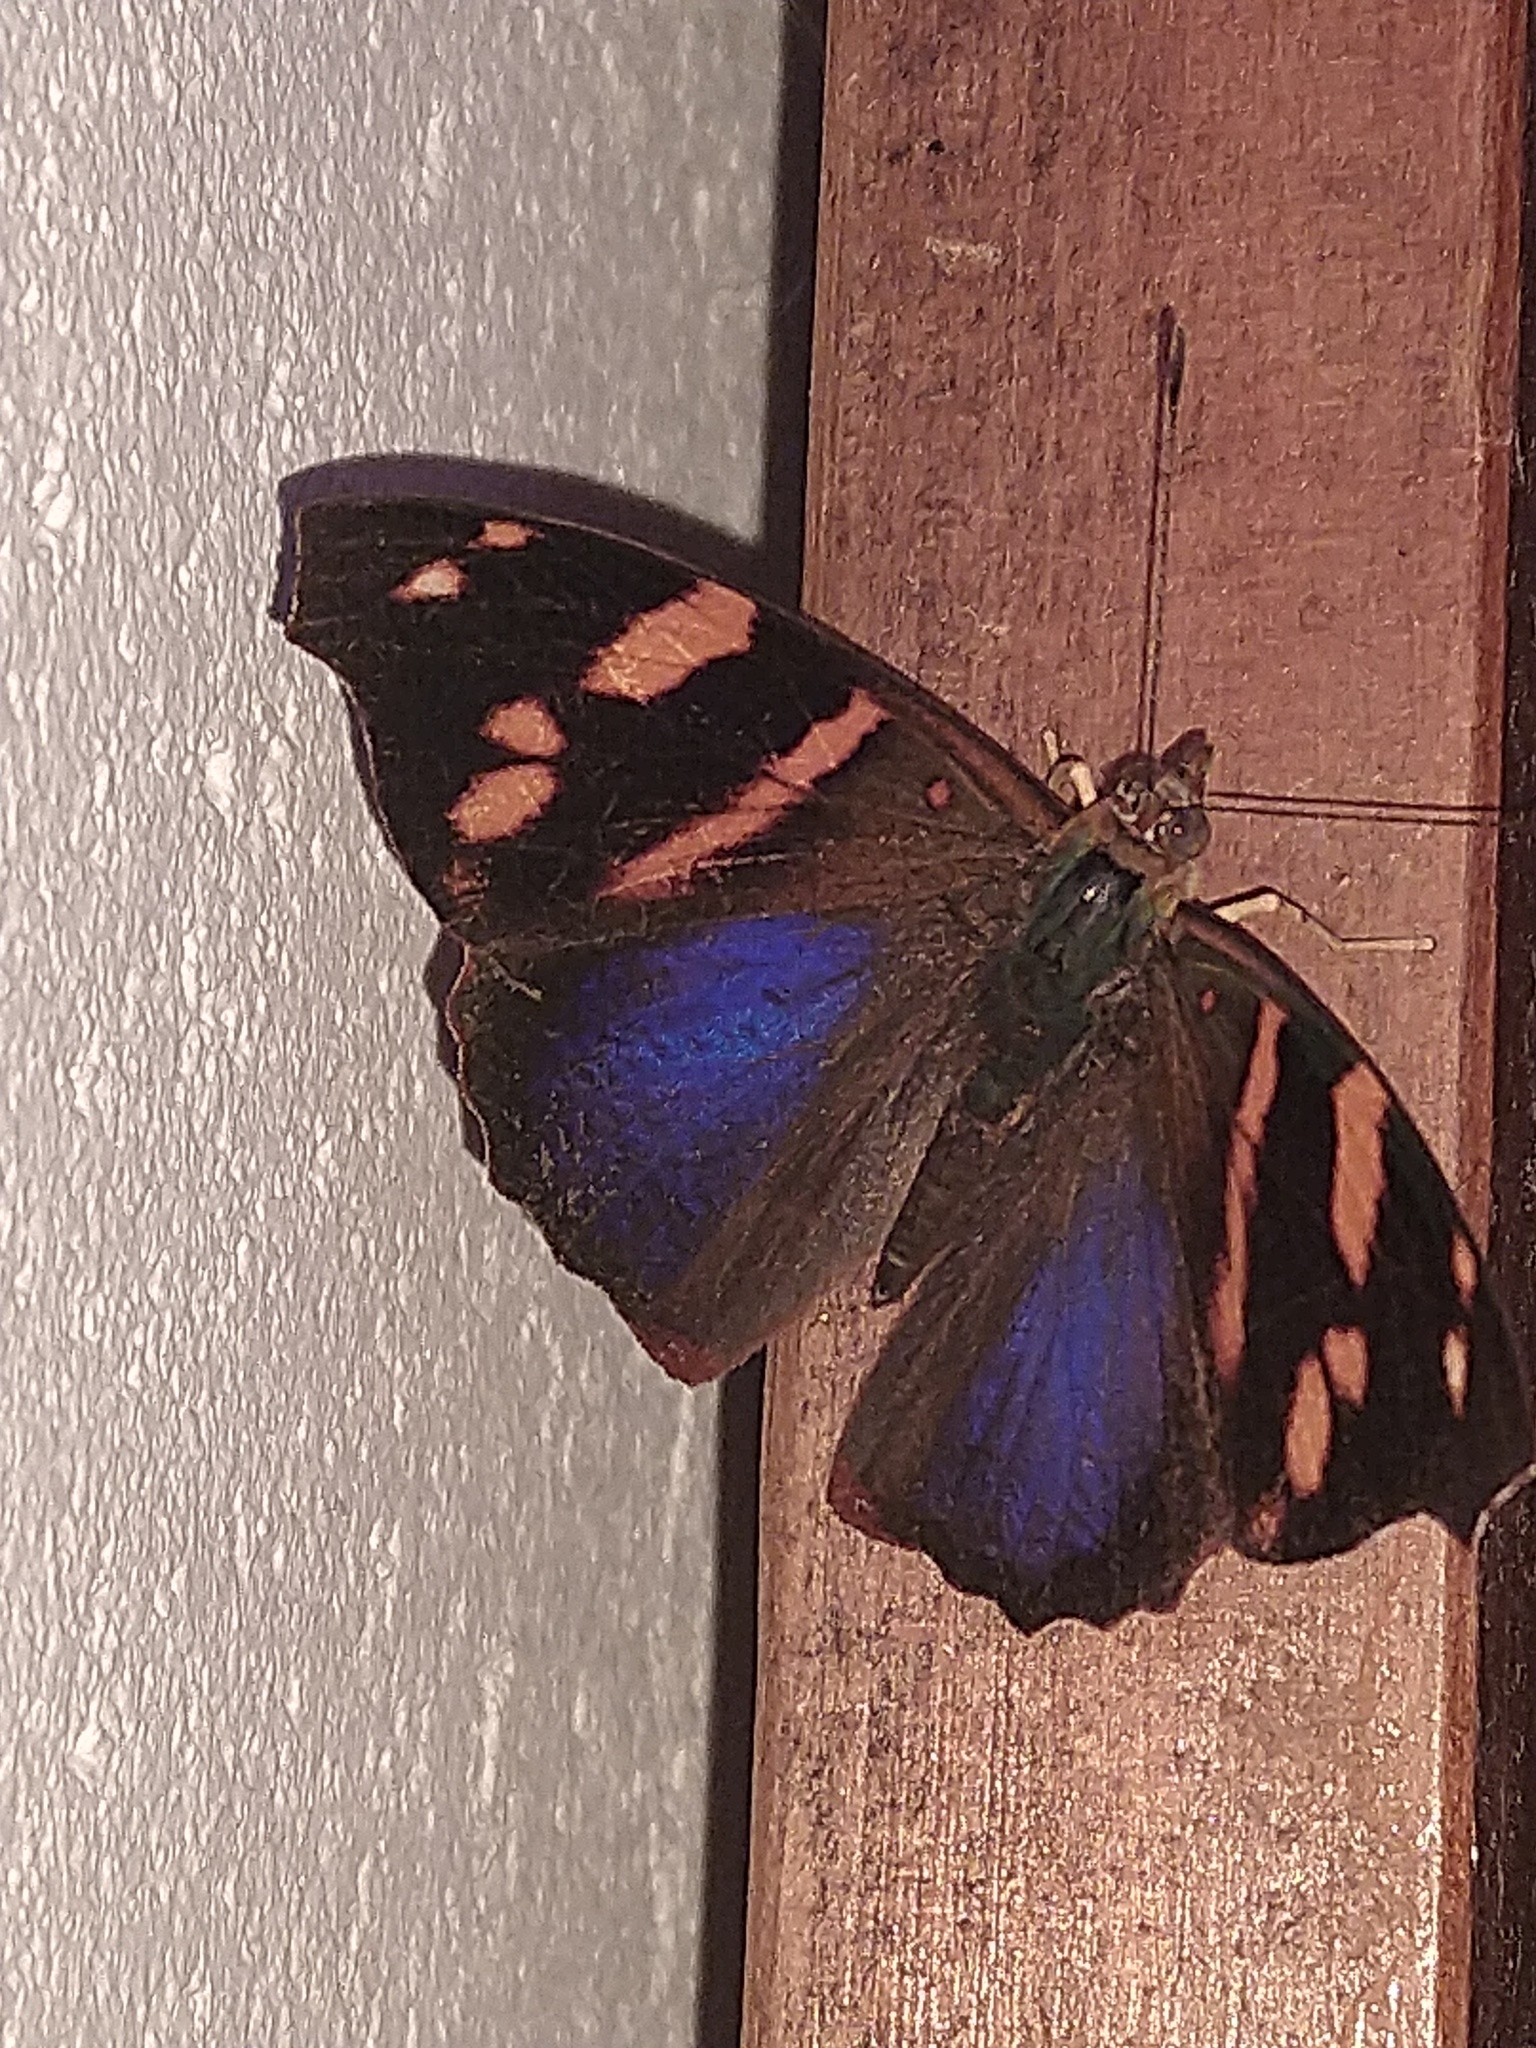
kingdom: Animalia
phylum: Arthropoda
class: Insecta
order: Lepidoptera
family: Nymphalidae
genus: Epiphile
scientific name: Epiphile orea
